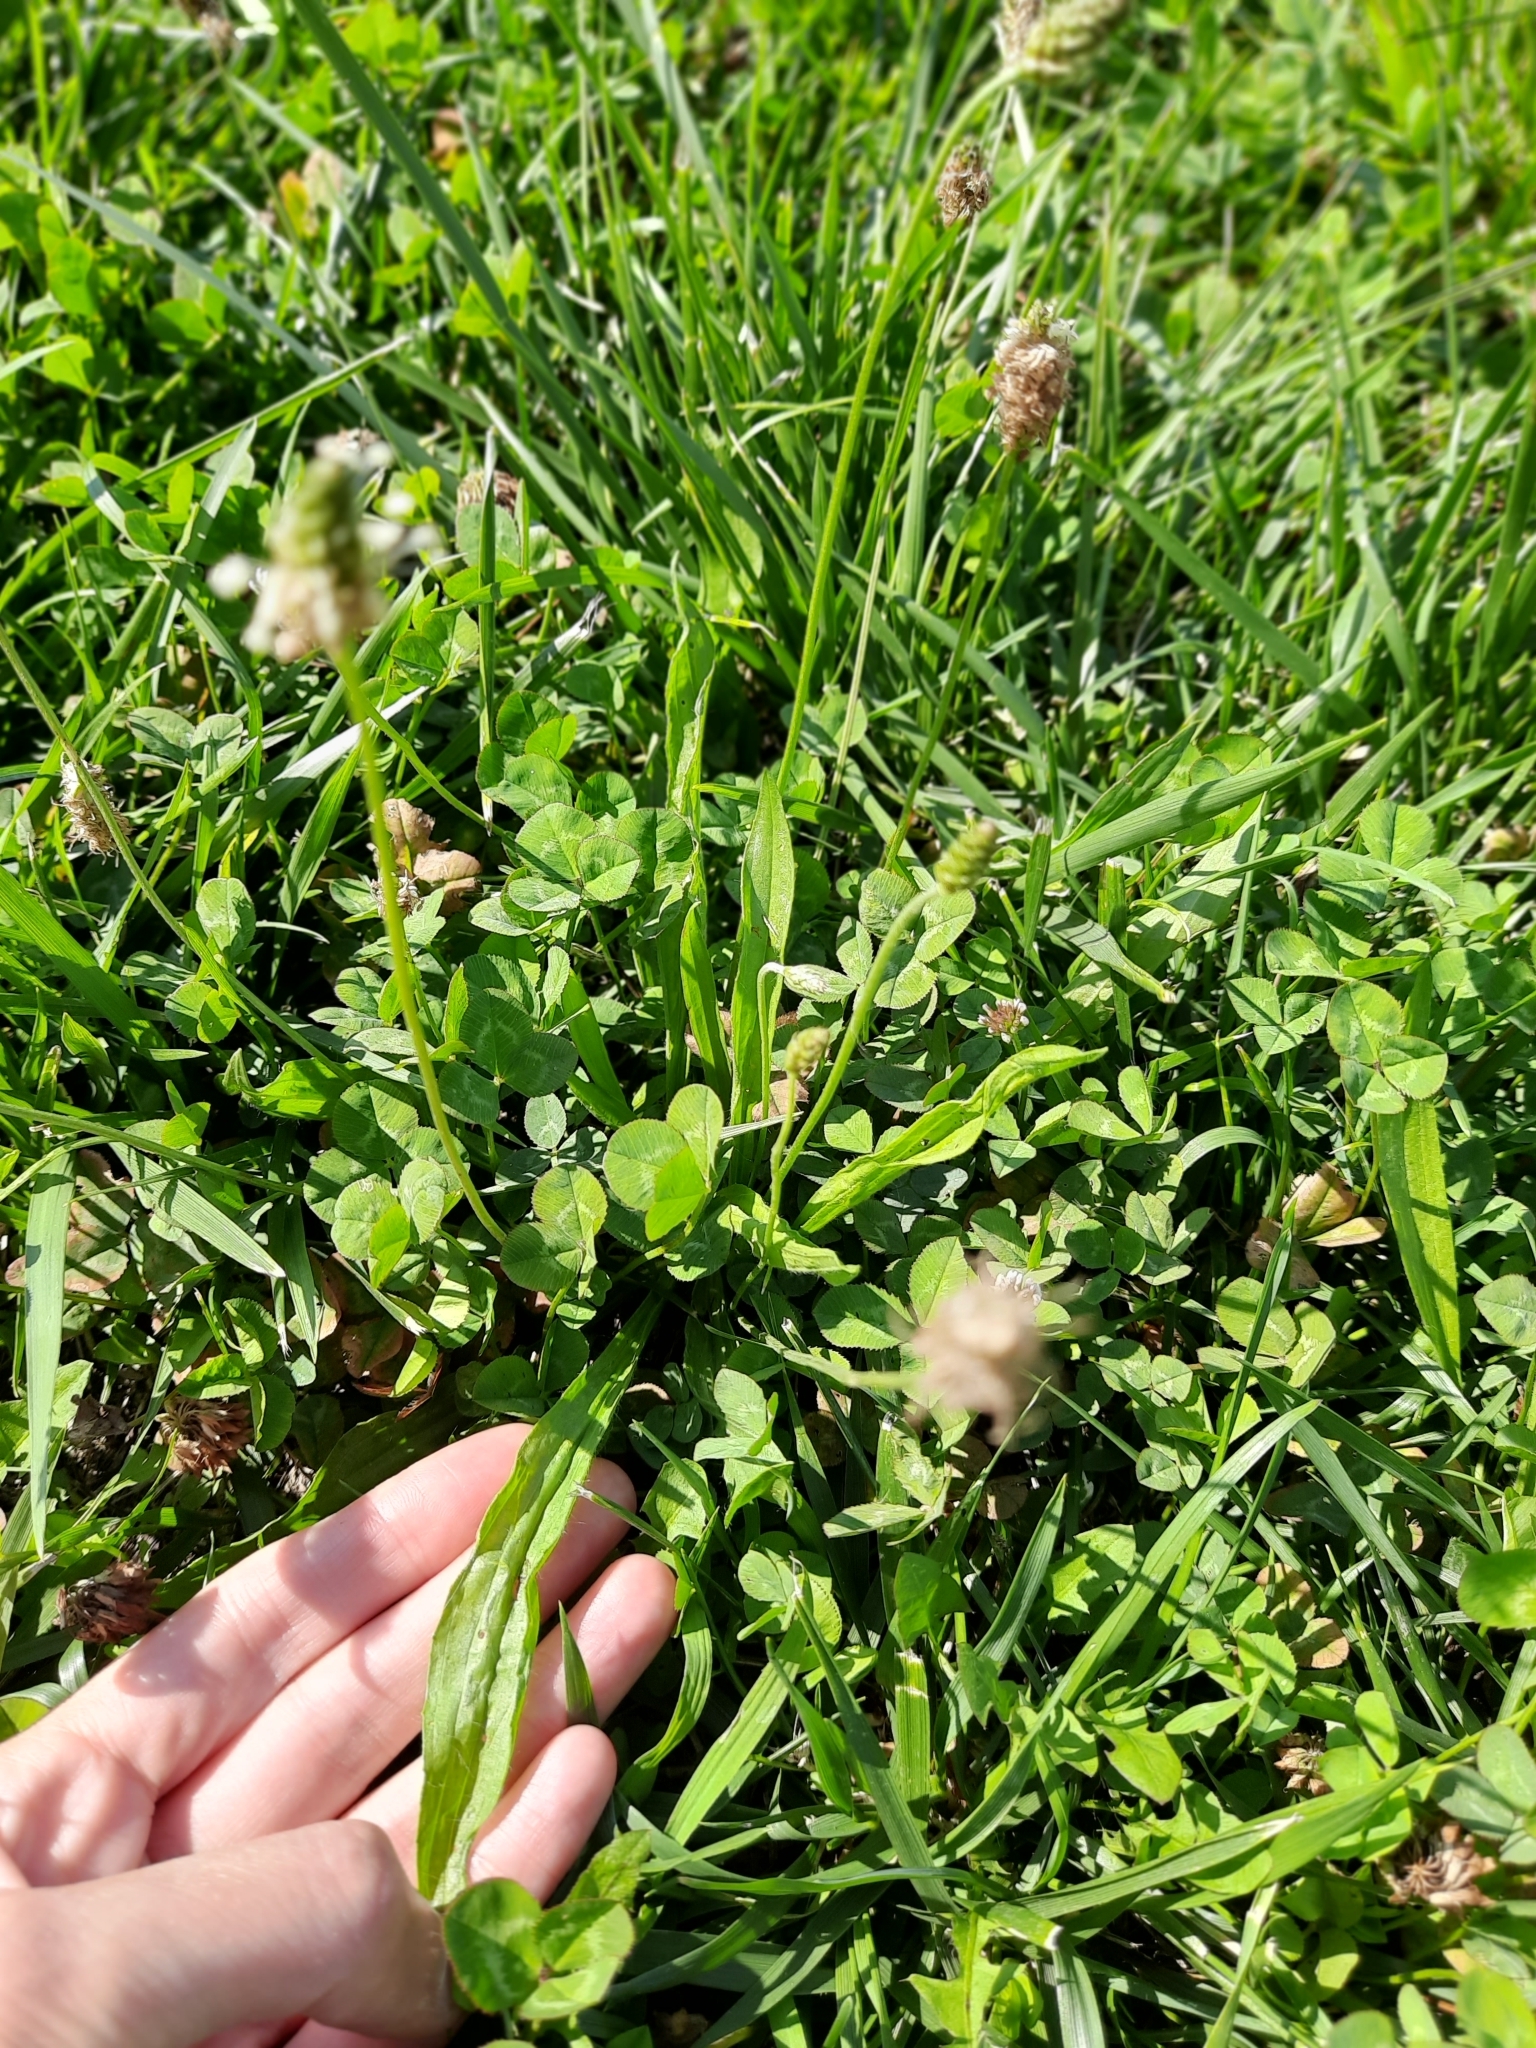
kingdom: Plantae
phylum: Tracheophyta
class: Magnoliopsida
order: Lamiales
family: Plantaginaceae
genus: Plantago
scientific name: Plantago lanceolata
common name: Ribwort plantain
